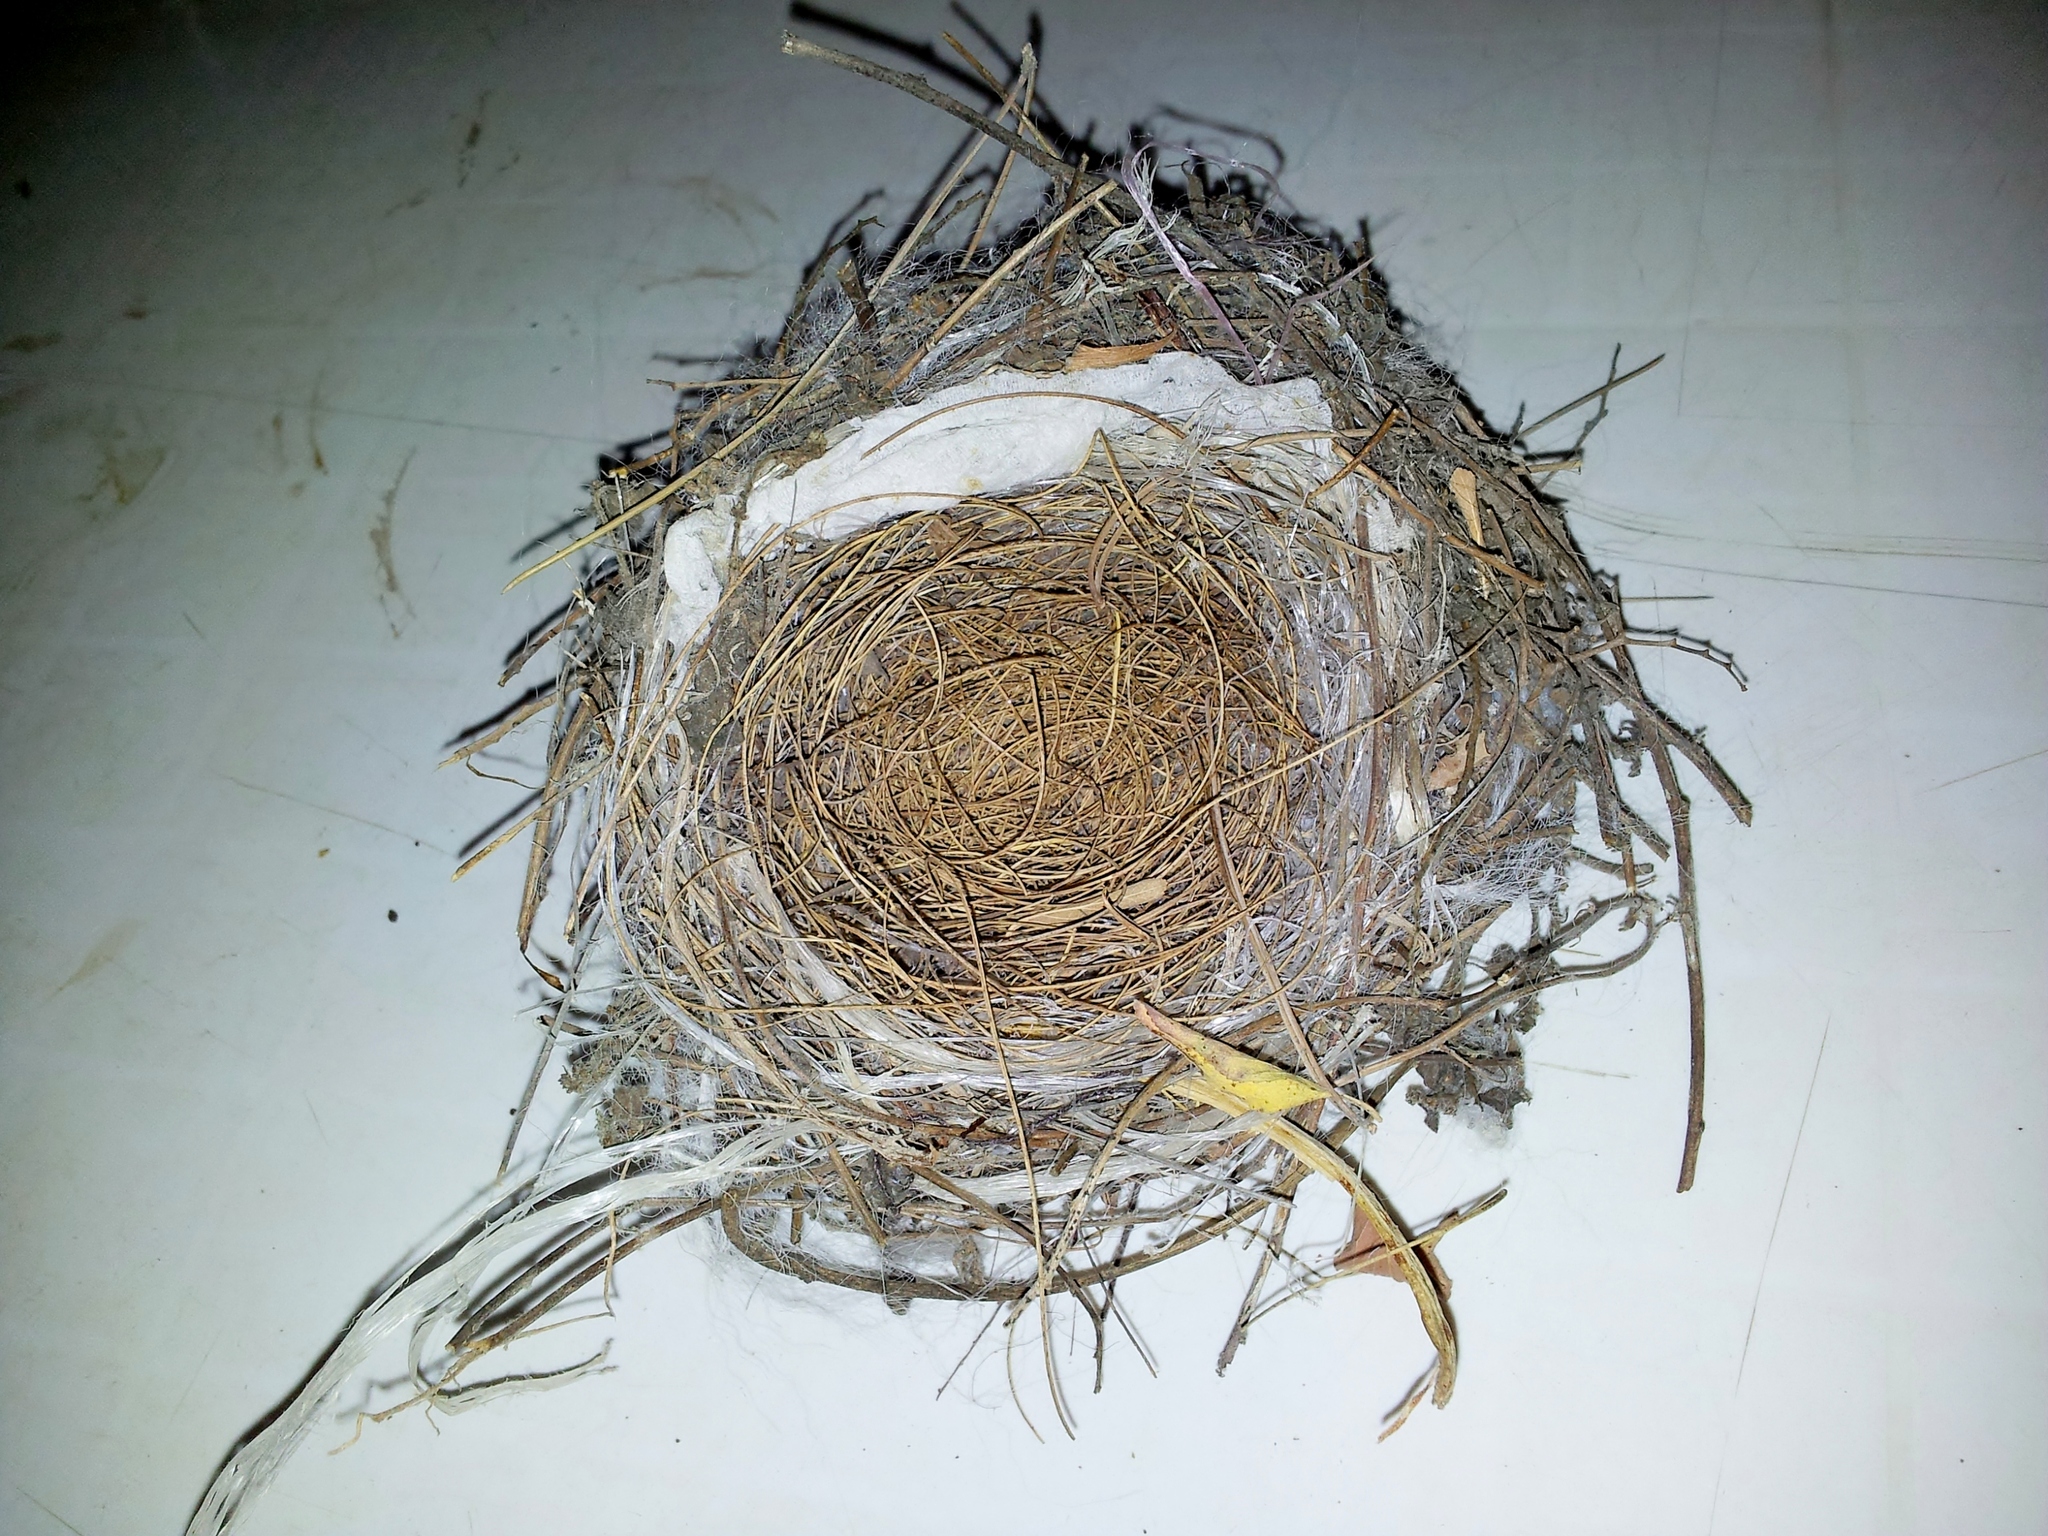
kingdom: Animalia
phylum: Chordata
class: Aves
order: Passeriformes
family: Pycnonotidae
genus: Pycnonotus
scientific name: Pycnonotus xanthopygos
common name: White-spectacled bulbul
